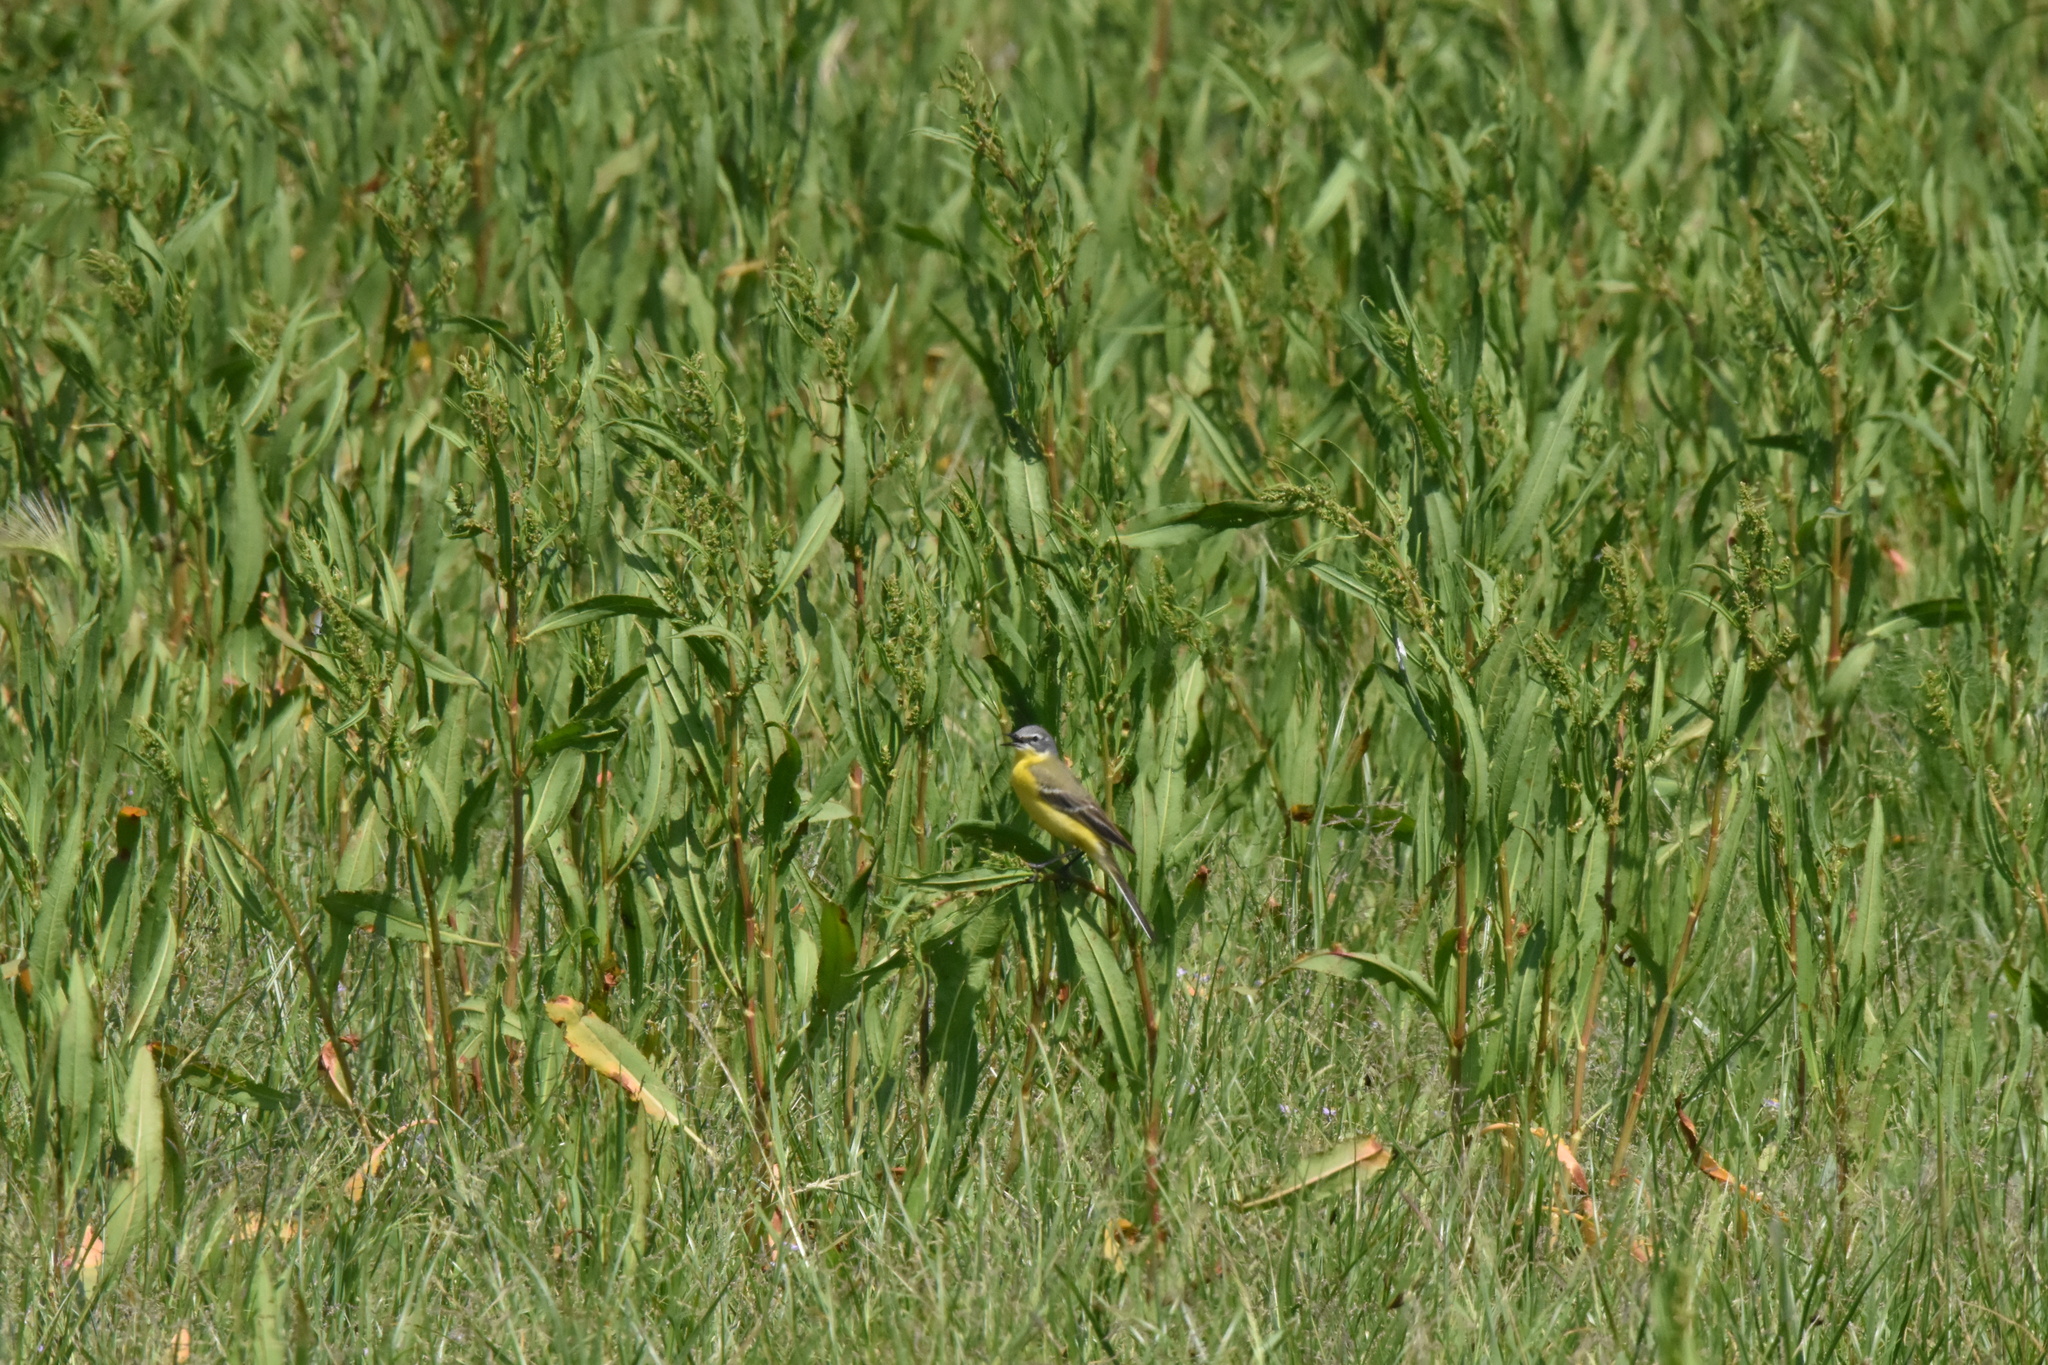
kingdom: Animalia
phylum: Chordata
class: Aves
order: Passeriformes
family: Motacillidae
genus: Motacilla
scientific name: Motacilla flava
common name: Western yellow wagtail
